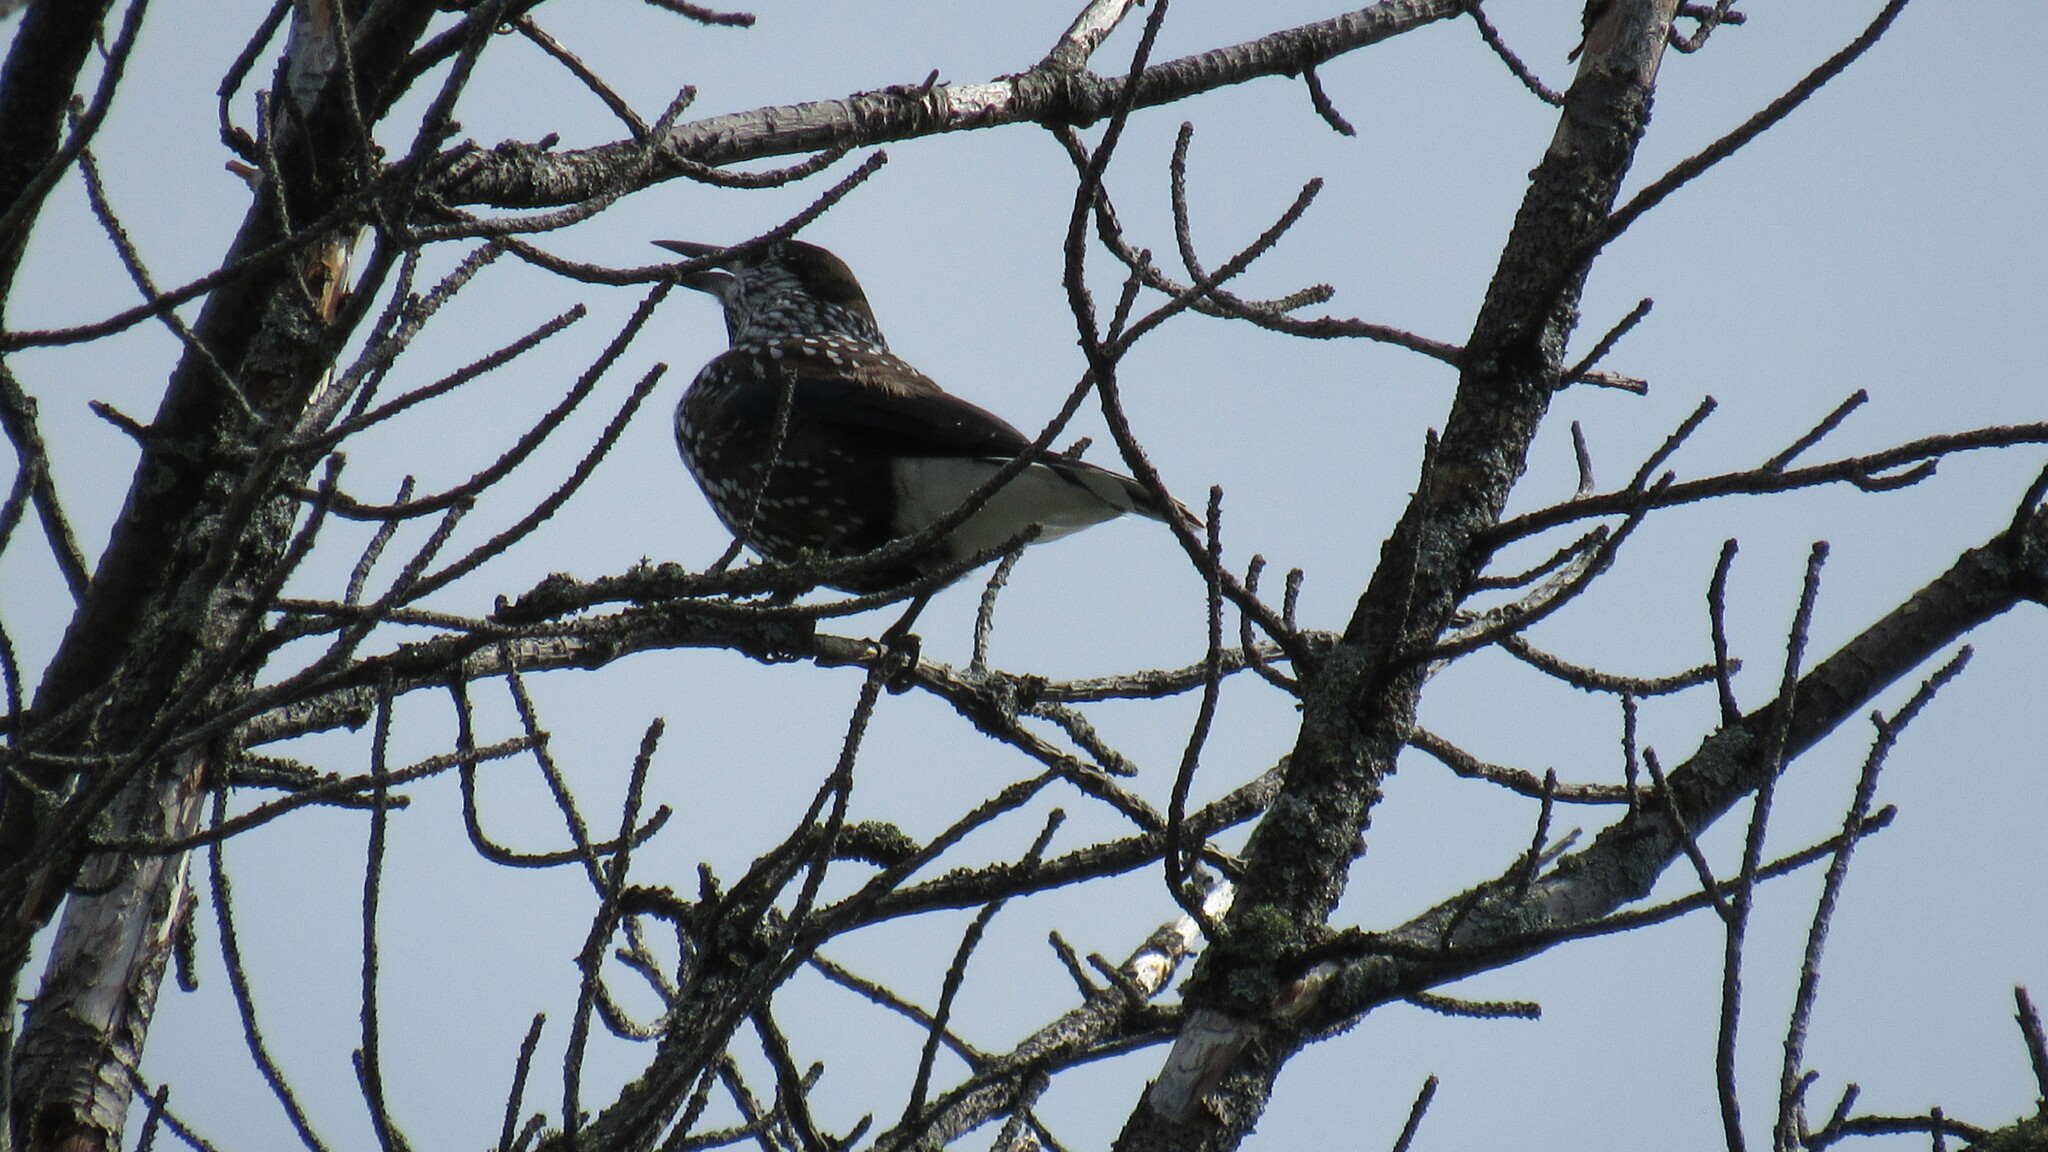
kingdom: Animalia
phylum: Chordata
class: Aves
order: Passeriformes
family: Corvidae
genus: Nucifraga
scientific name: Nucifraga caryocatactes
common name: Spotted nutcracker
